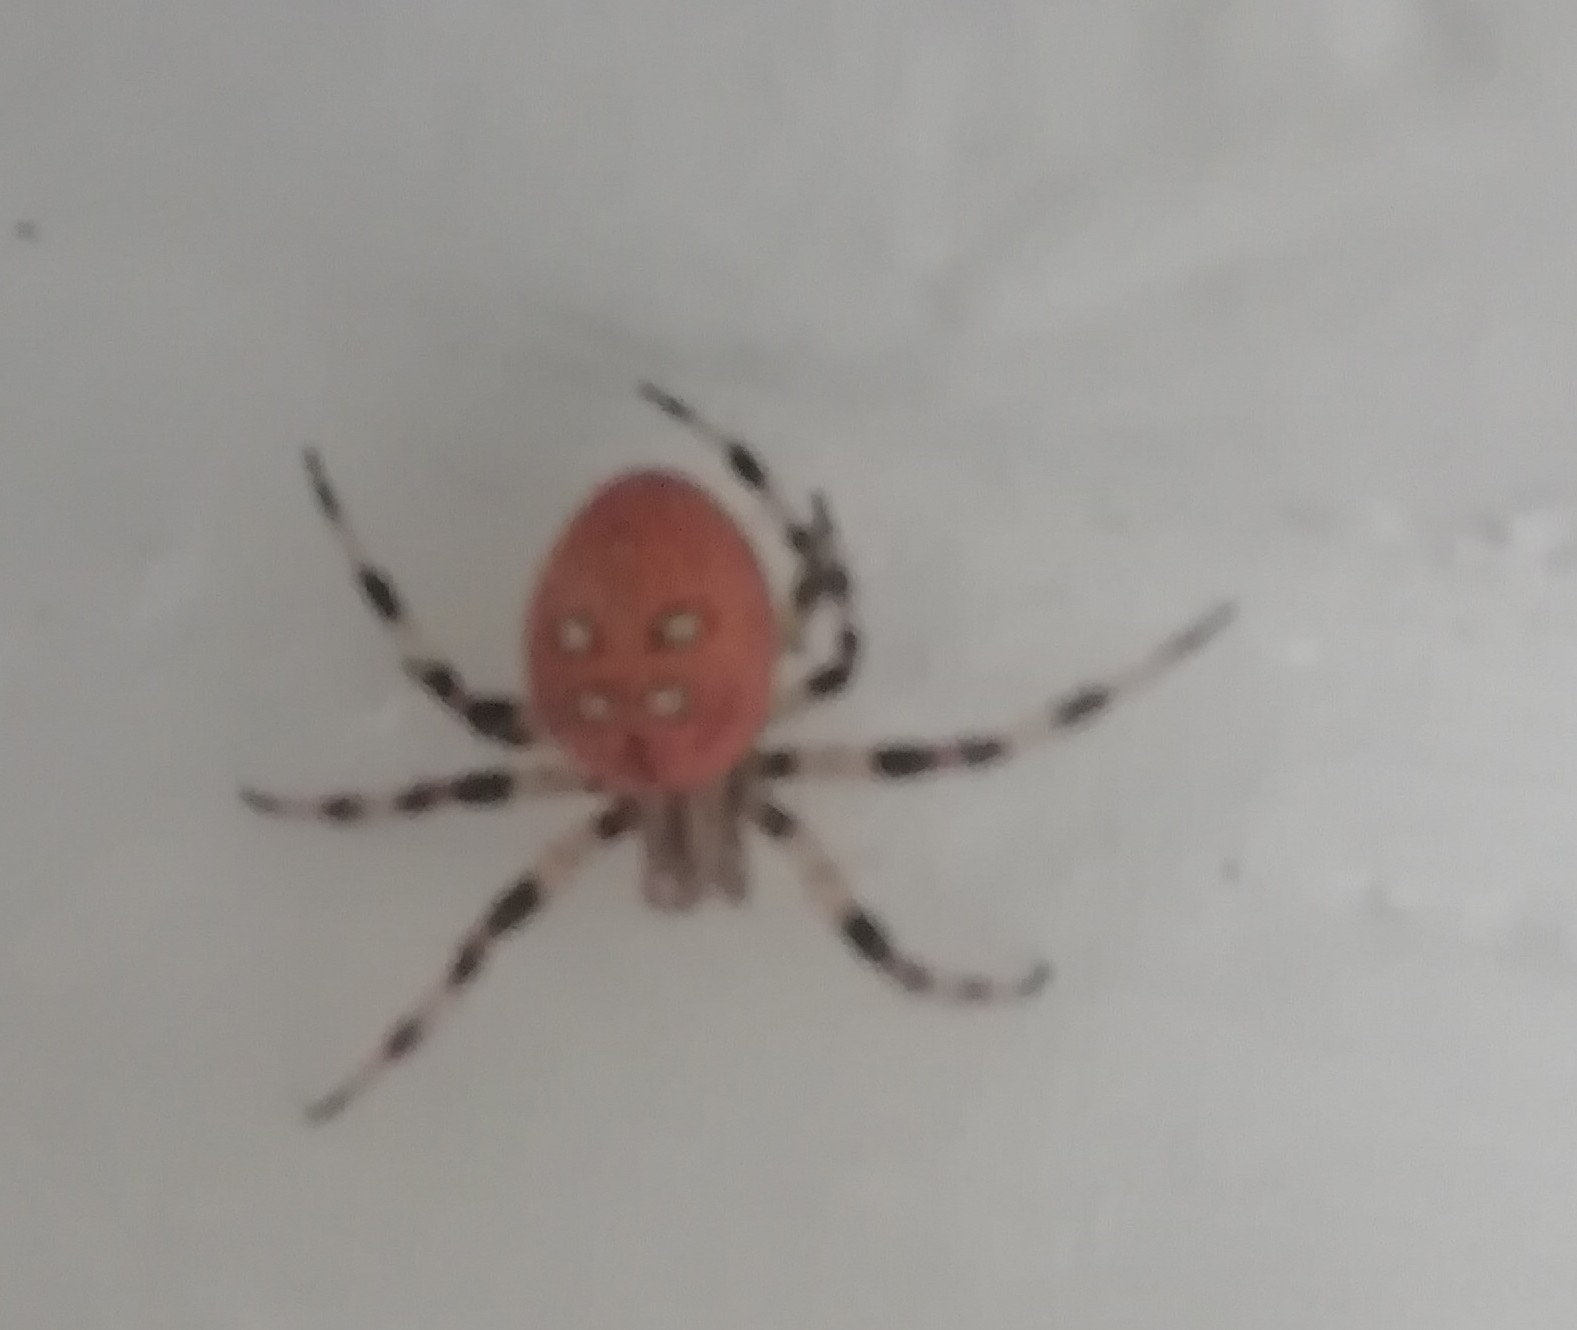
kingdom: Animalia
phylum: Arthropoda
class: Arachnida
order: Araneae
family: Araneidae
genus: Araneus
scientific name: Araneus quadratus
